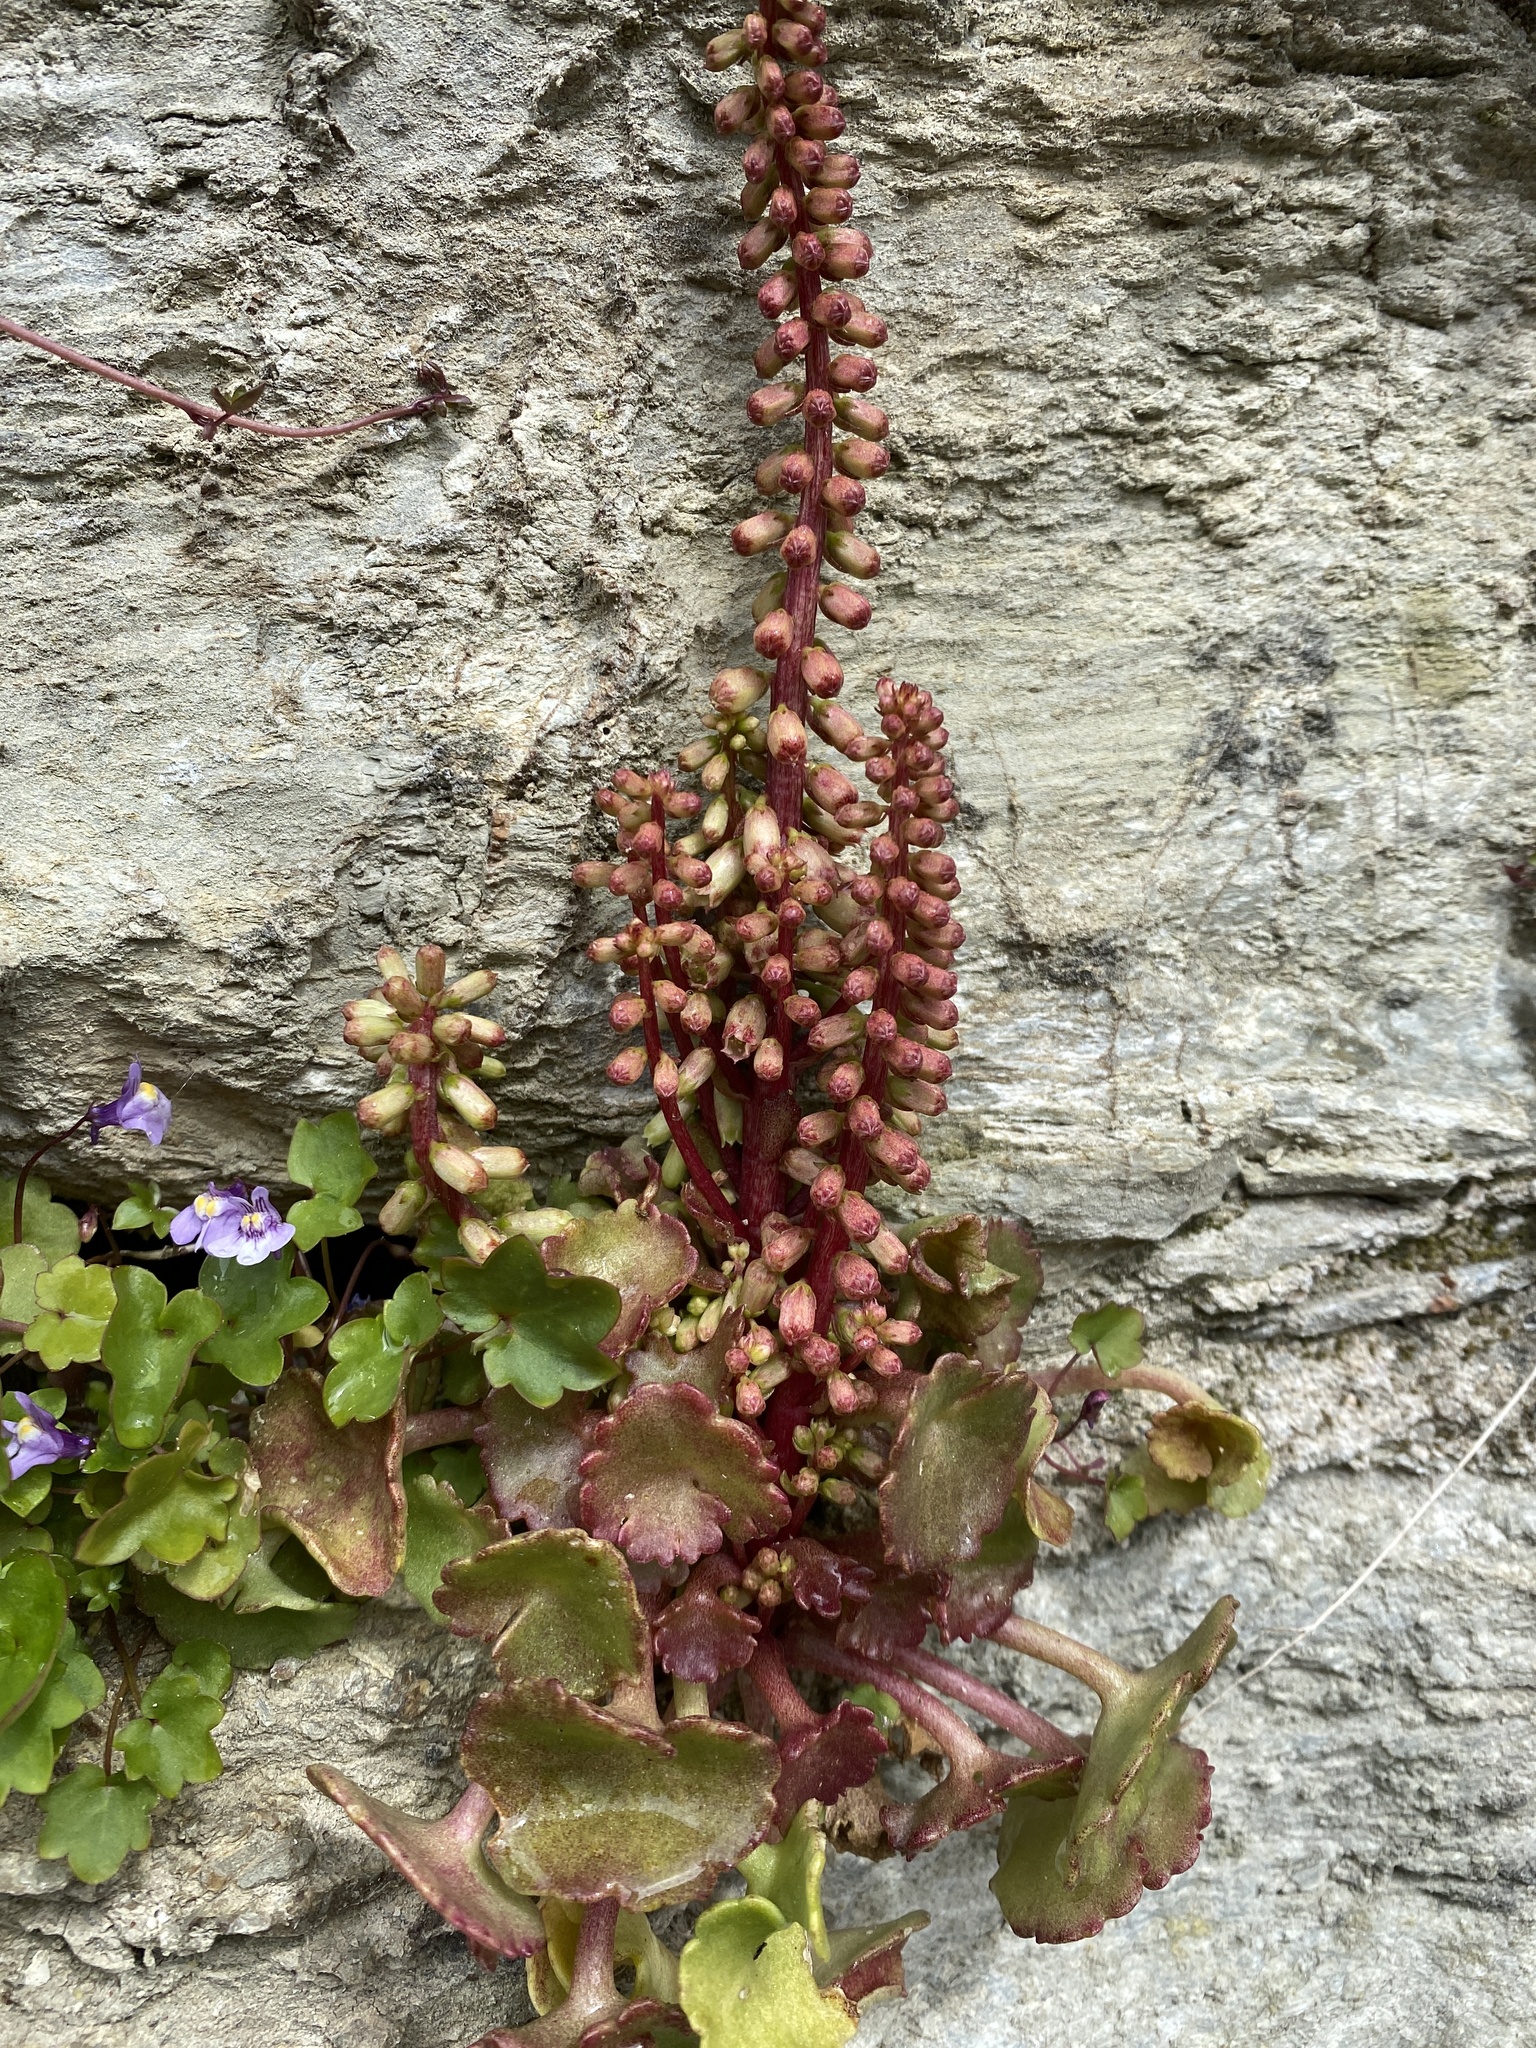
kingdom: Plantae
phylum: Tracheophyta
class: Magnoliopsida
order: Saxifragales
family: Crassulaceae
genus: Umbilicus
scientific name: Umbilicus rupestris
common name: Navelwort
